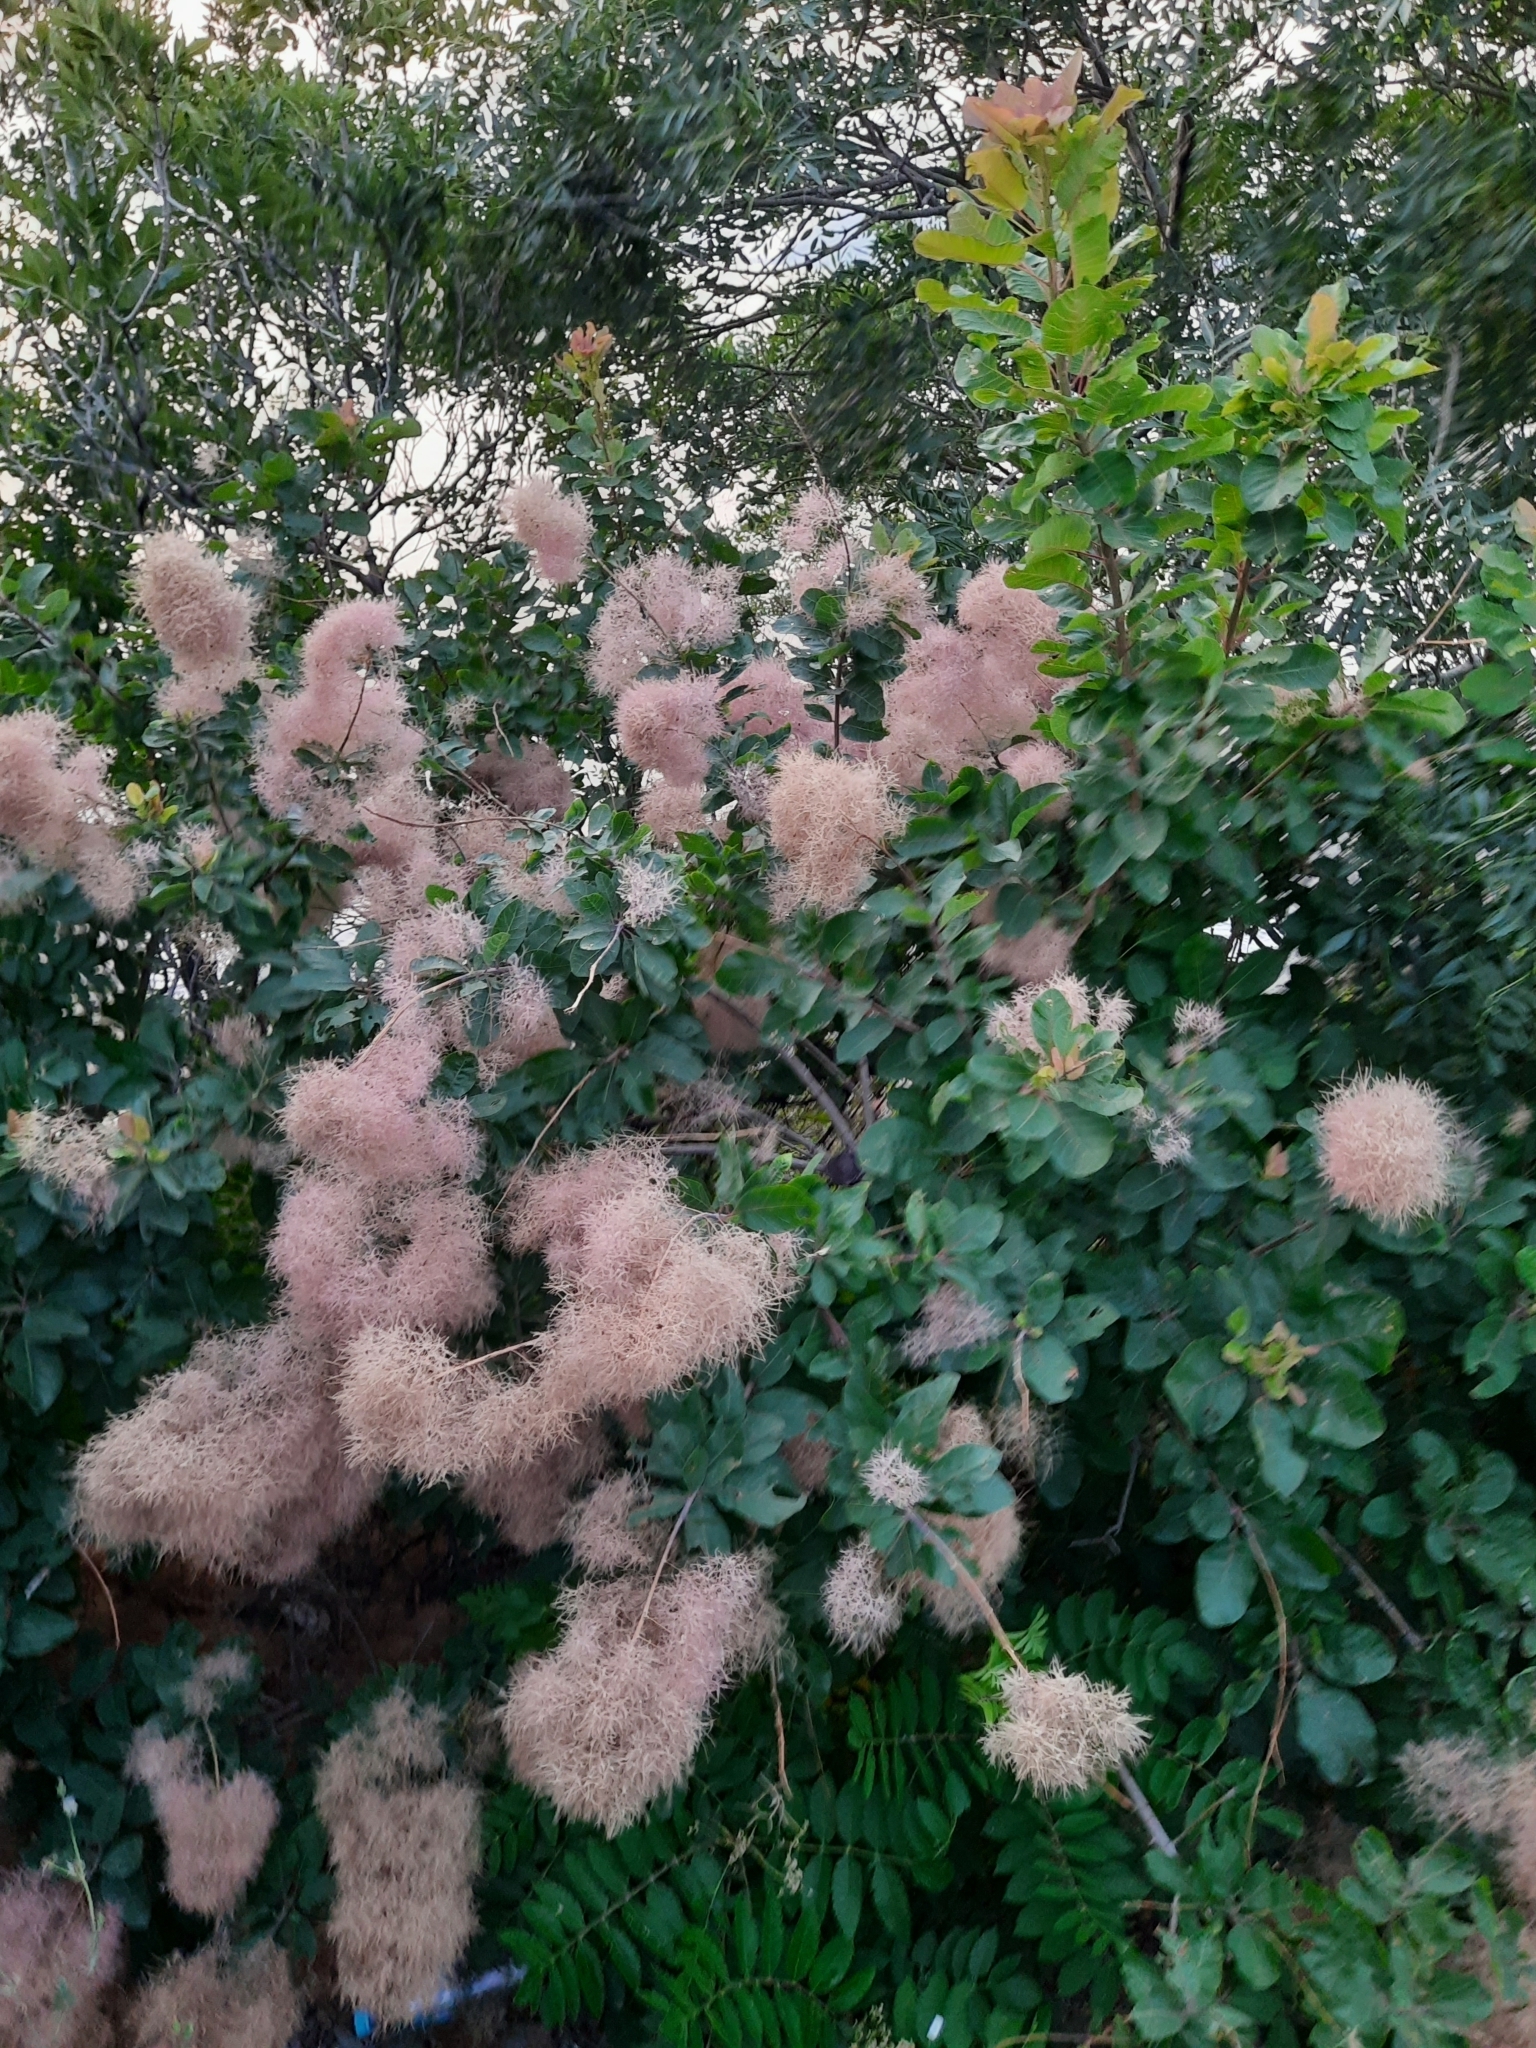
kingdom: Plantae
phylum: Tracheophyta
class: Magnoliopsida
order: Sapindales
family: Anacardiaceae
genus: Cotinus
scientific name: Cotinus coggygria
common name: Smoke-tree
